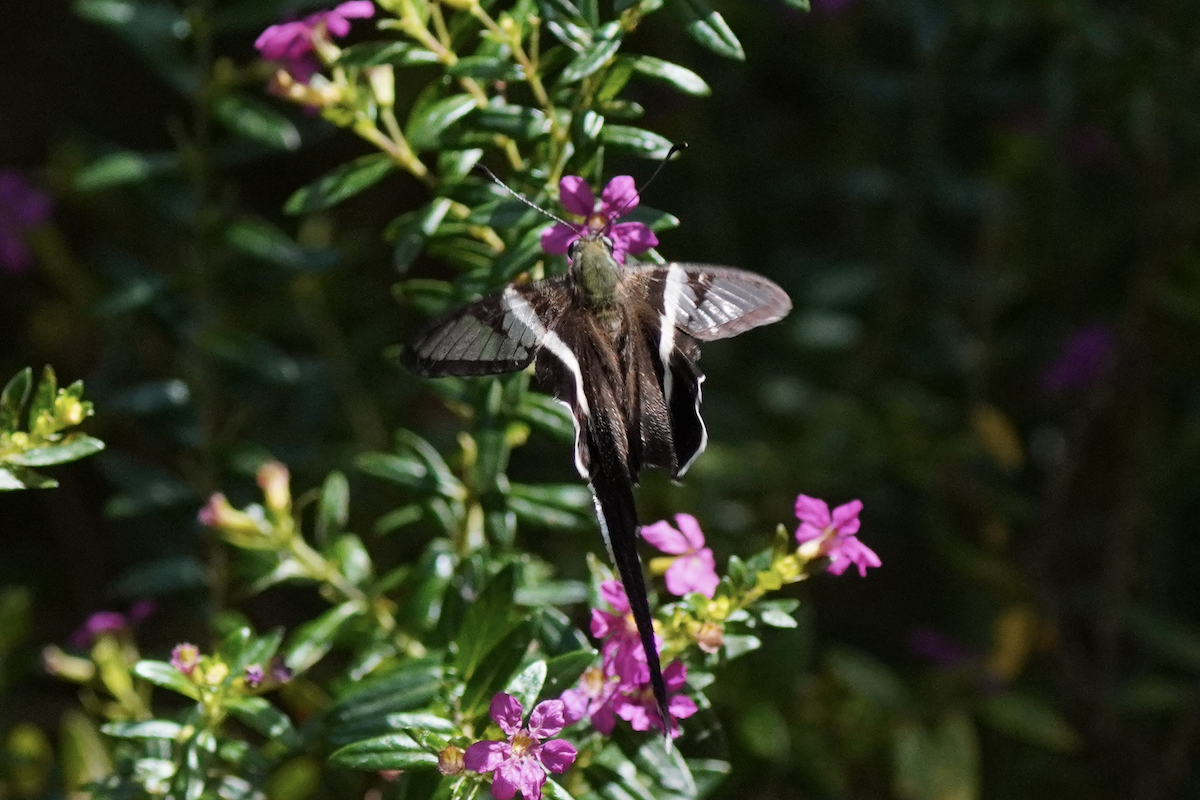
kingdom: Animalia
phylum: Arthropoda
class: Insecta
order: Lepidoptera
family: Papilionidae
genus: Lamproptera
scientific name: Lamproptera curius
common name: White dragontail
